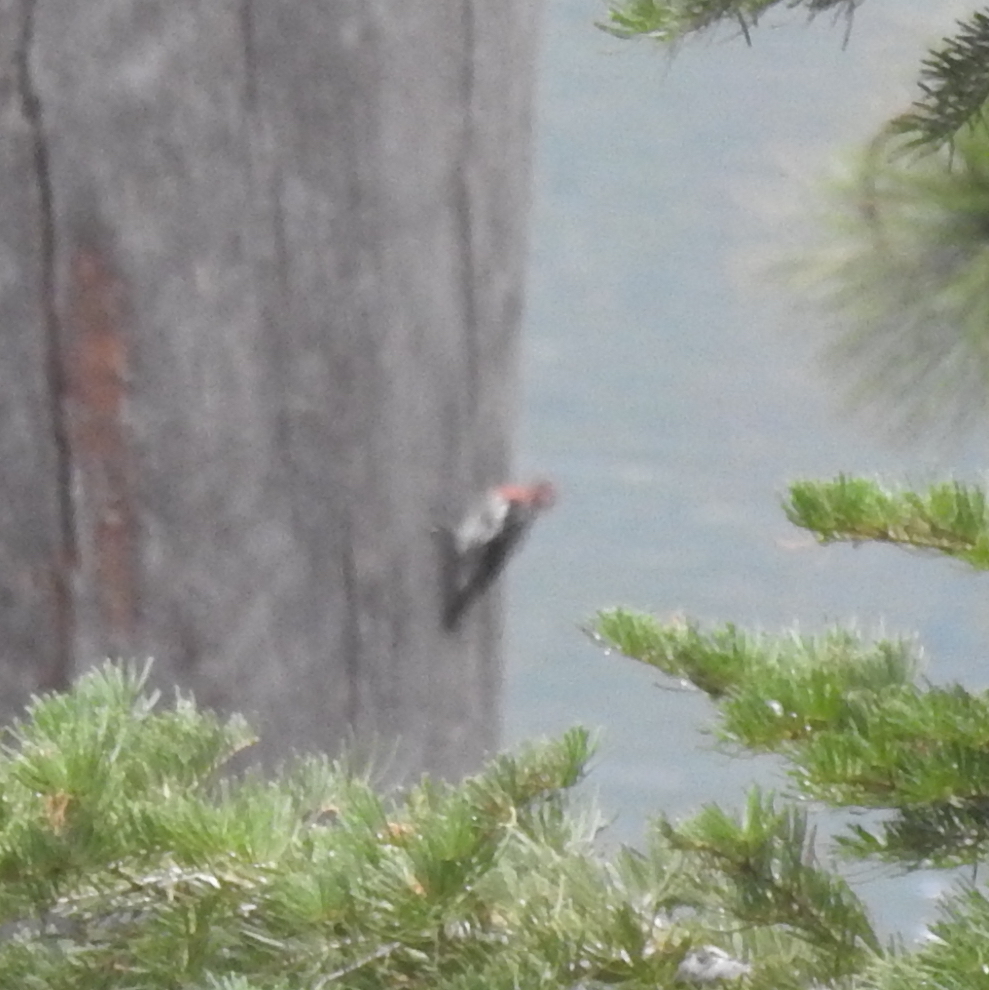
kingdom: Animalia
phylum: Chordata
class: Aves
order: Piciformes
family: Picidae
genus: Sphyrapicus
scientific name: Sphyrapicus ruber
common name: Red-breasted sapsucker
